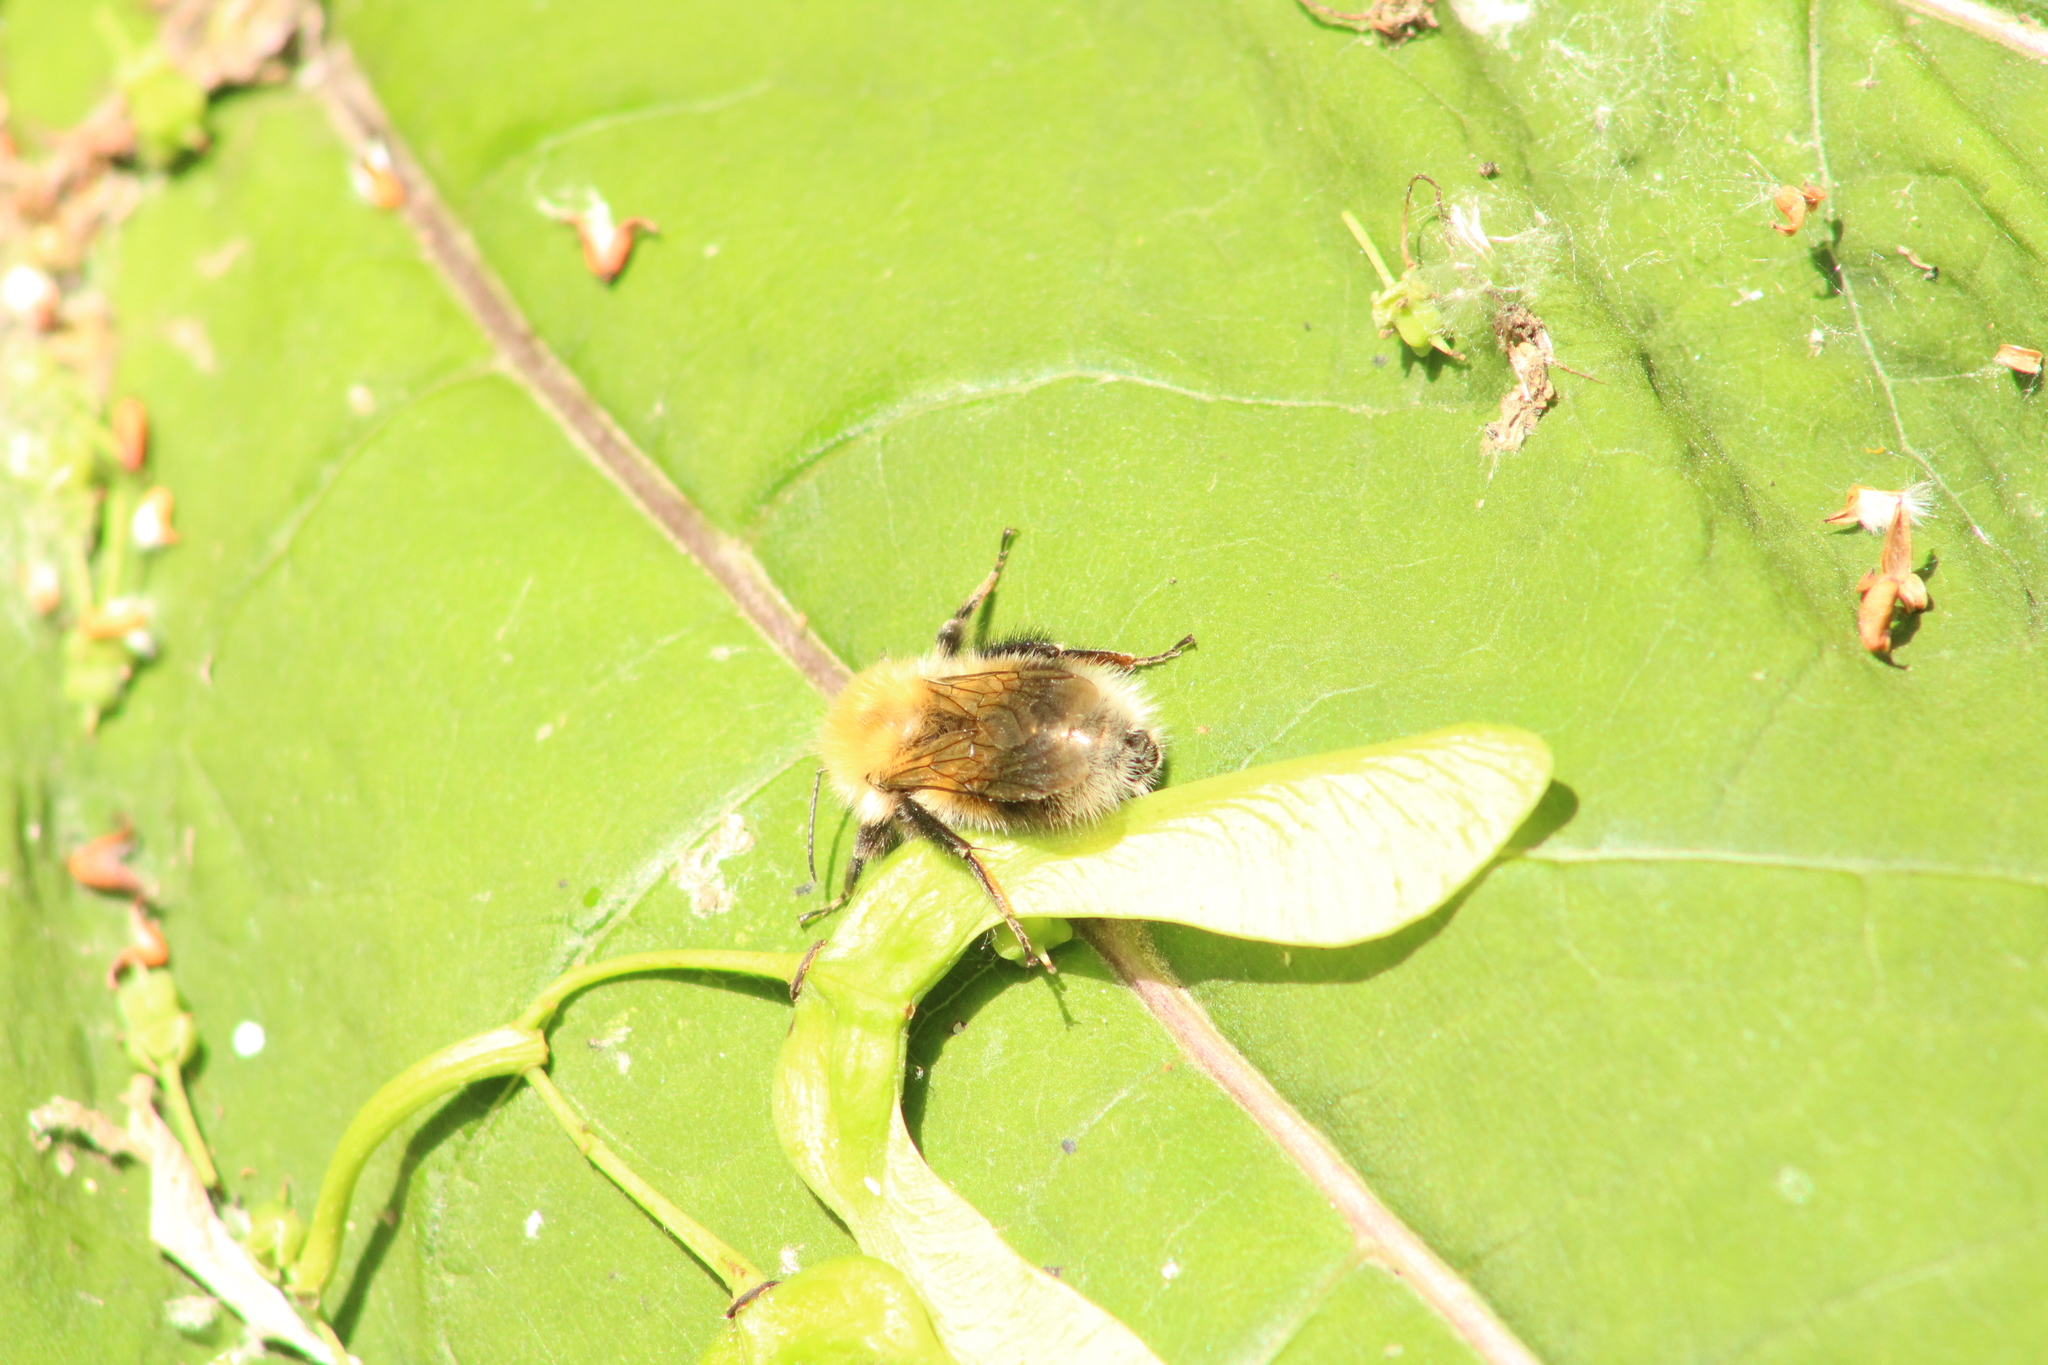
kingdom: Animalia
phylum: Arthropoda
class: Insecta
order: Hymenoptera
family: Apidae
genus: Bombus
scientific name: Bombus hypnorum
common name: New garden bumblebee
